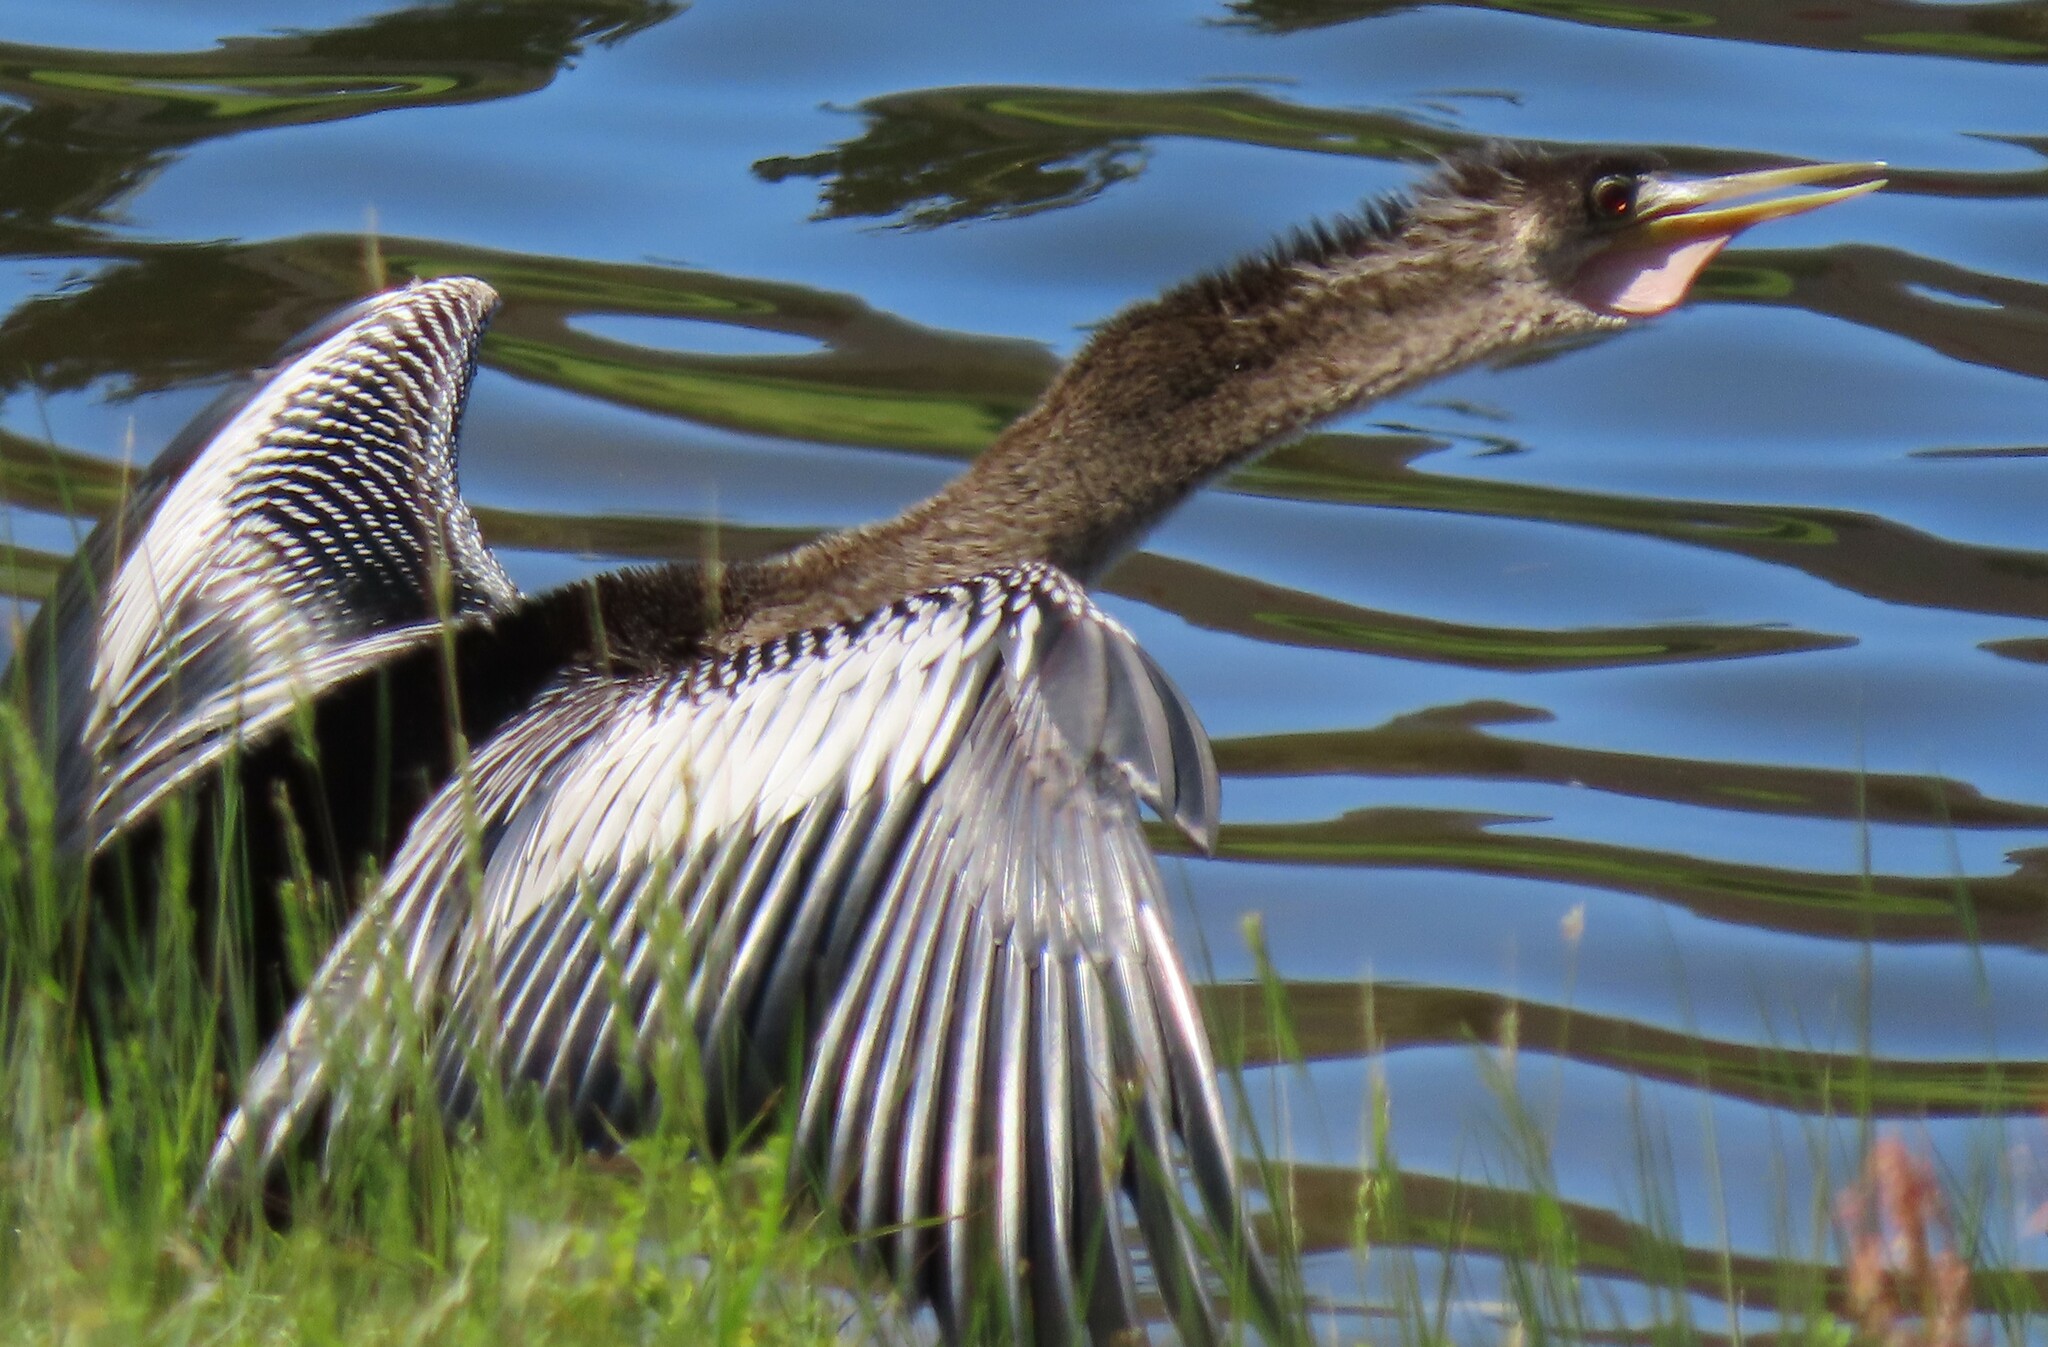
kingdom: Animalia
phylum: Chordata
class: Aves
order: Suliformes
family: Anhingidae
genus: Anhinga
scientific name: Anhinga anhinga
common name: Anhinga
